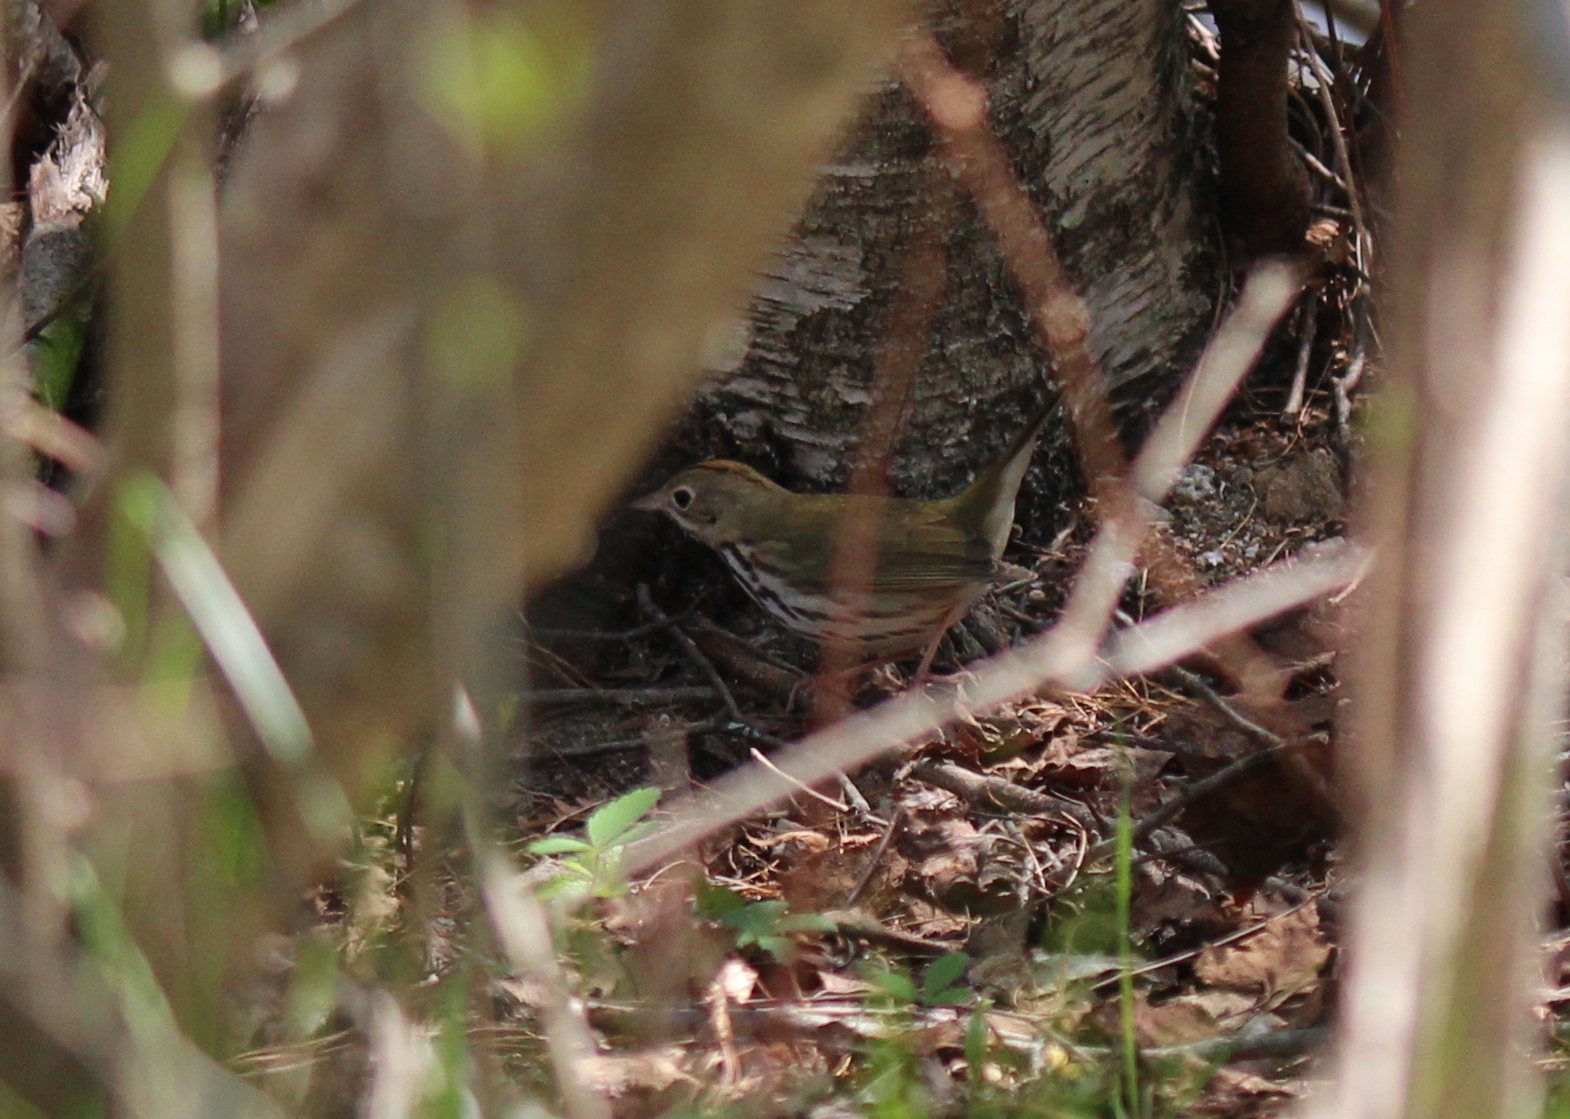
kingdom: Animalia
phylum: Chordata
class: Aves
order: Passeriformes
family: Parulidae
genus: Seiurus
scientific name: Seiurus aurocapilla
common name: Ovenbird
